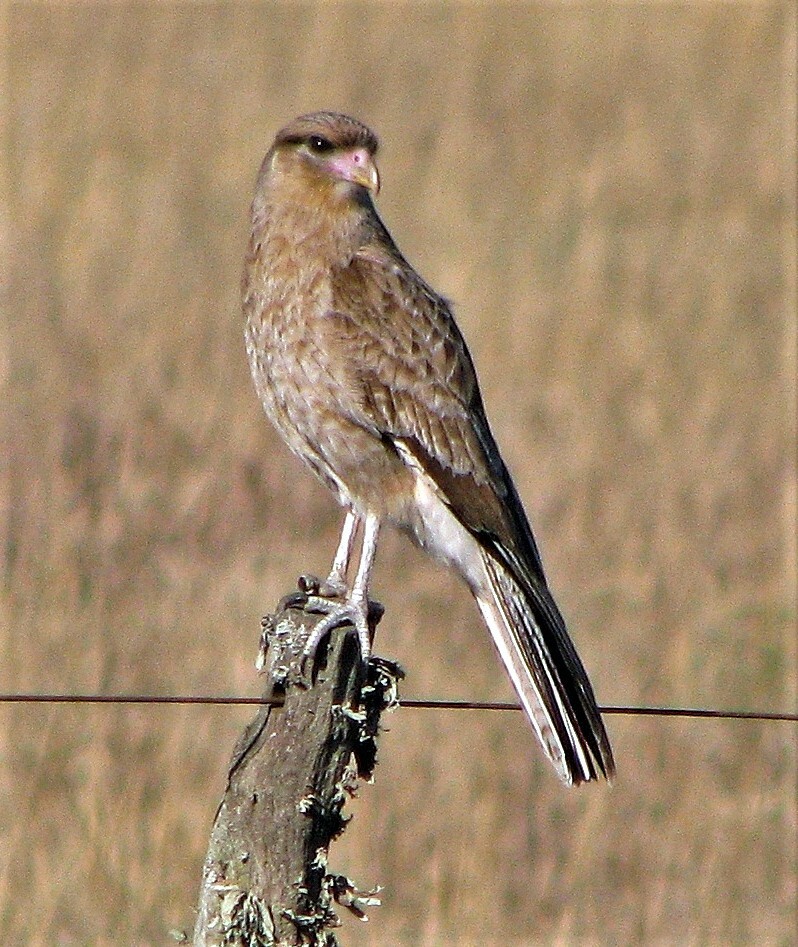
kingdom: Animalia
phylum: Chordata
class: Aves
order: Falconiformes
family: Falconidae
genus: Daptrius
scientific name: Daptrius
